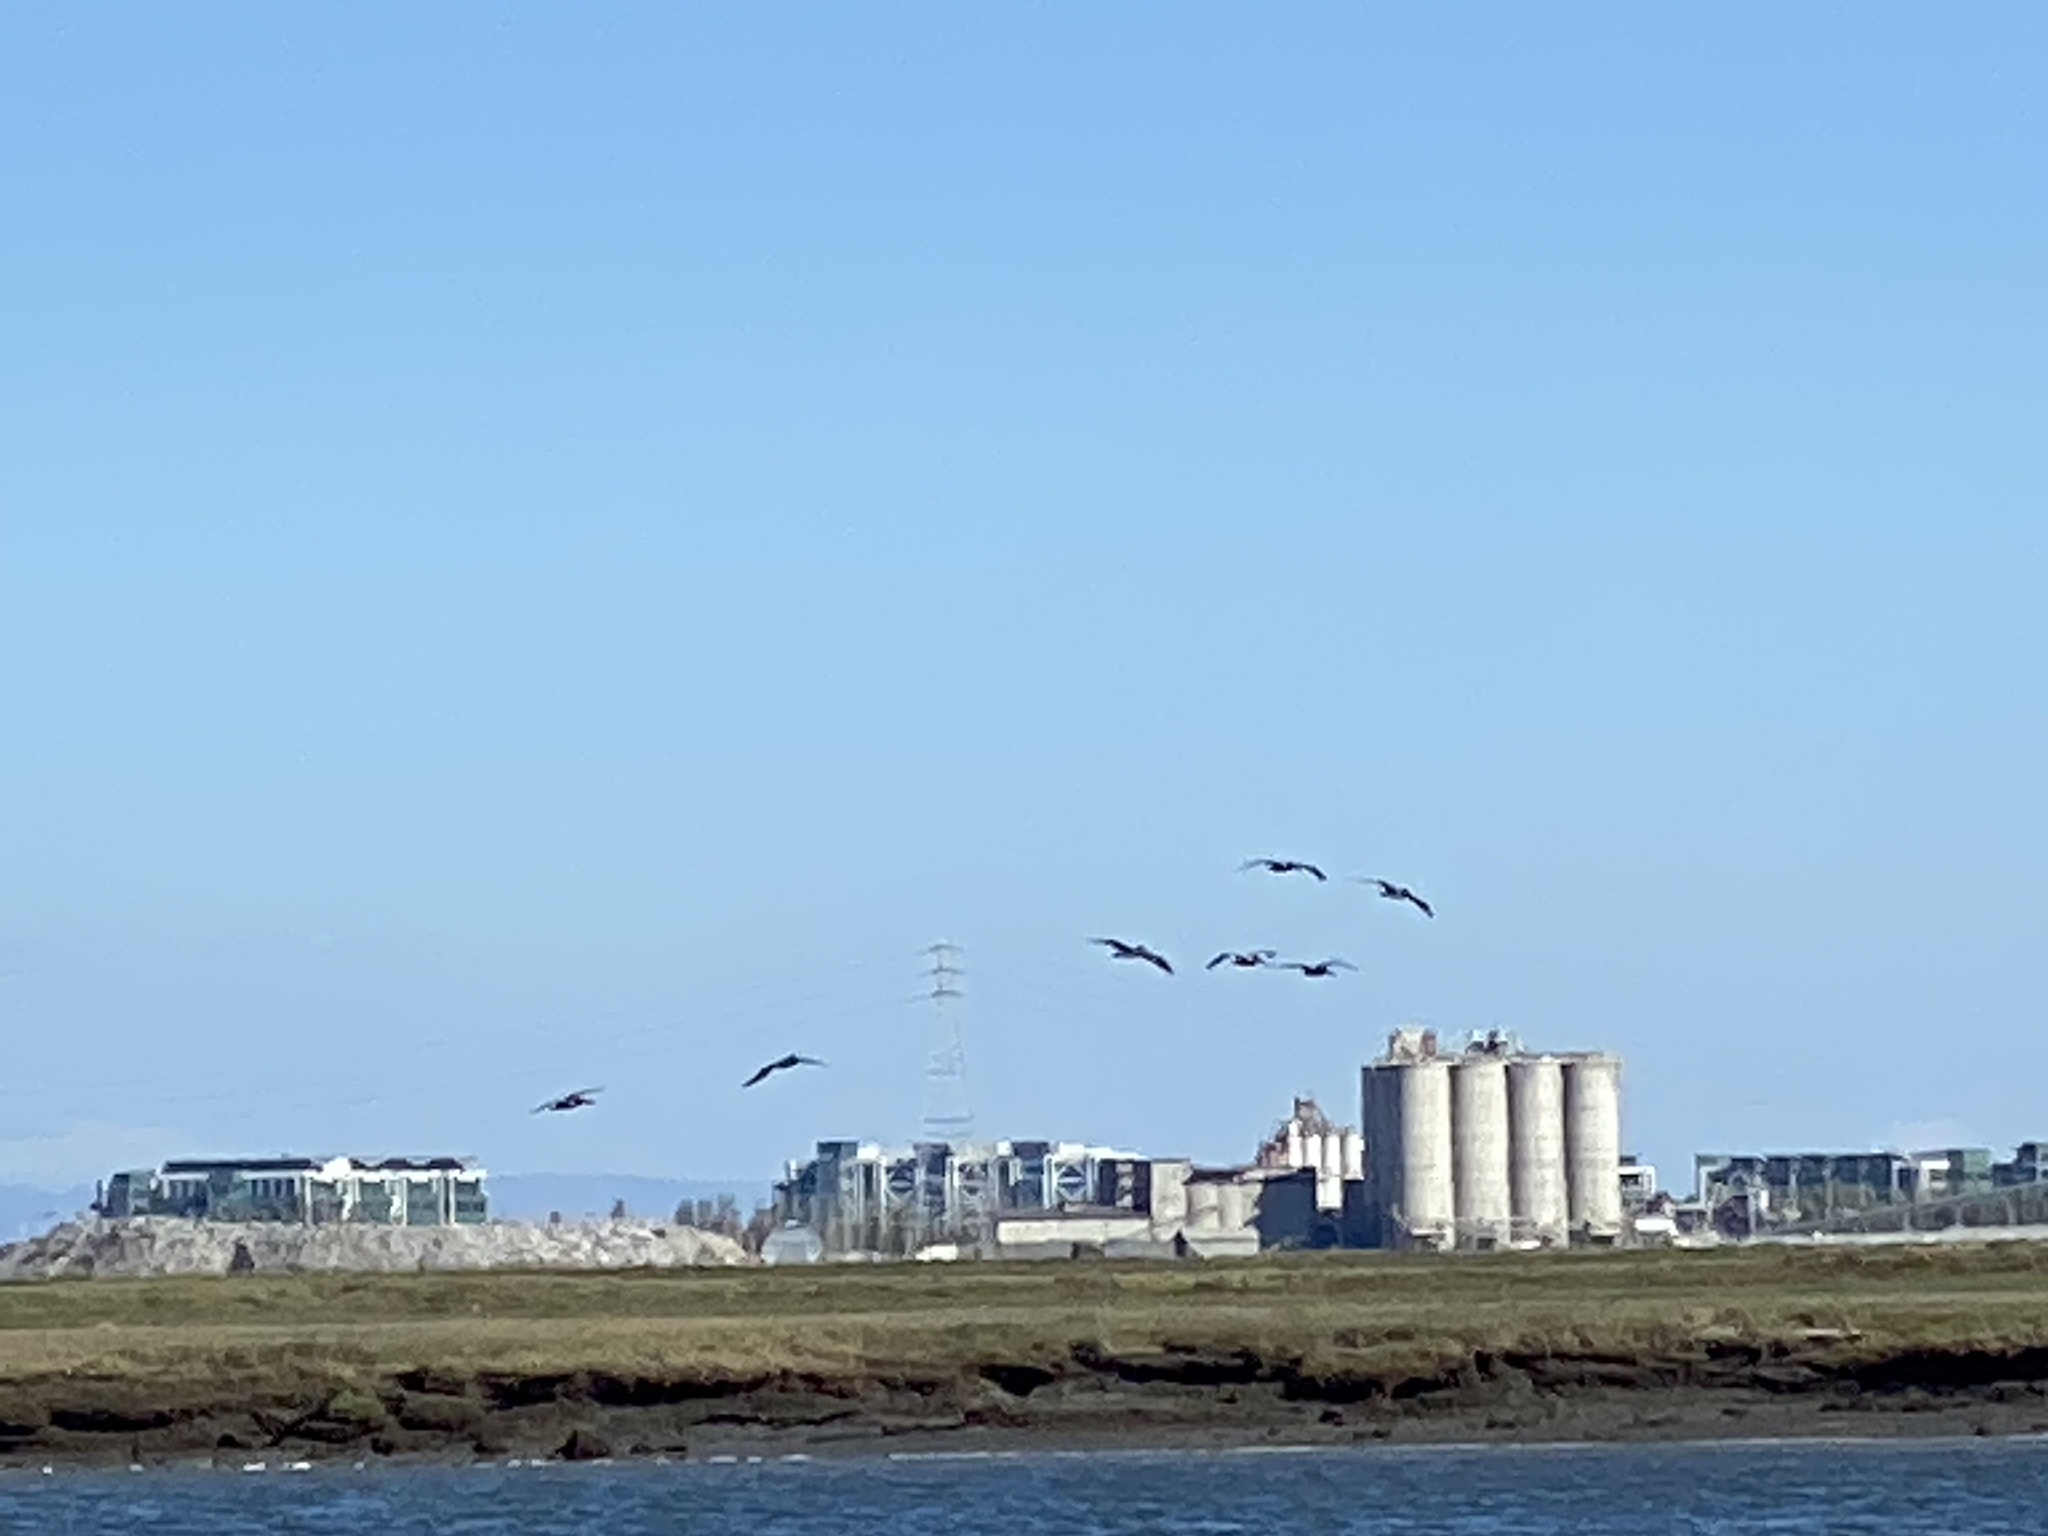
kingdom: Animalia
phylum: Chordata
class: Aves
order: Pelecaniformes
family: Pelecanidae
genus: Pelecanus
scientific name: Pelecanus occidentalis
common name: Brown pelican
